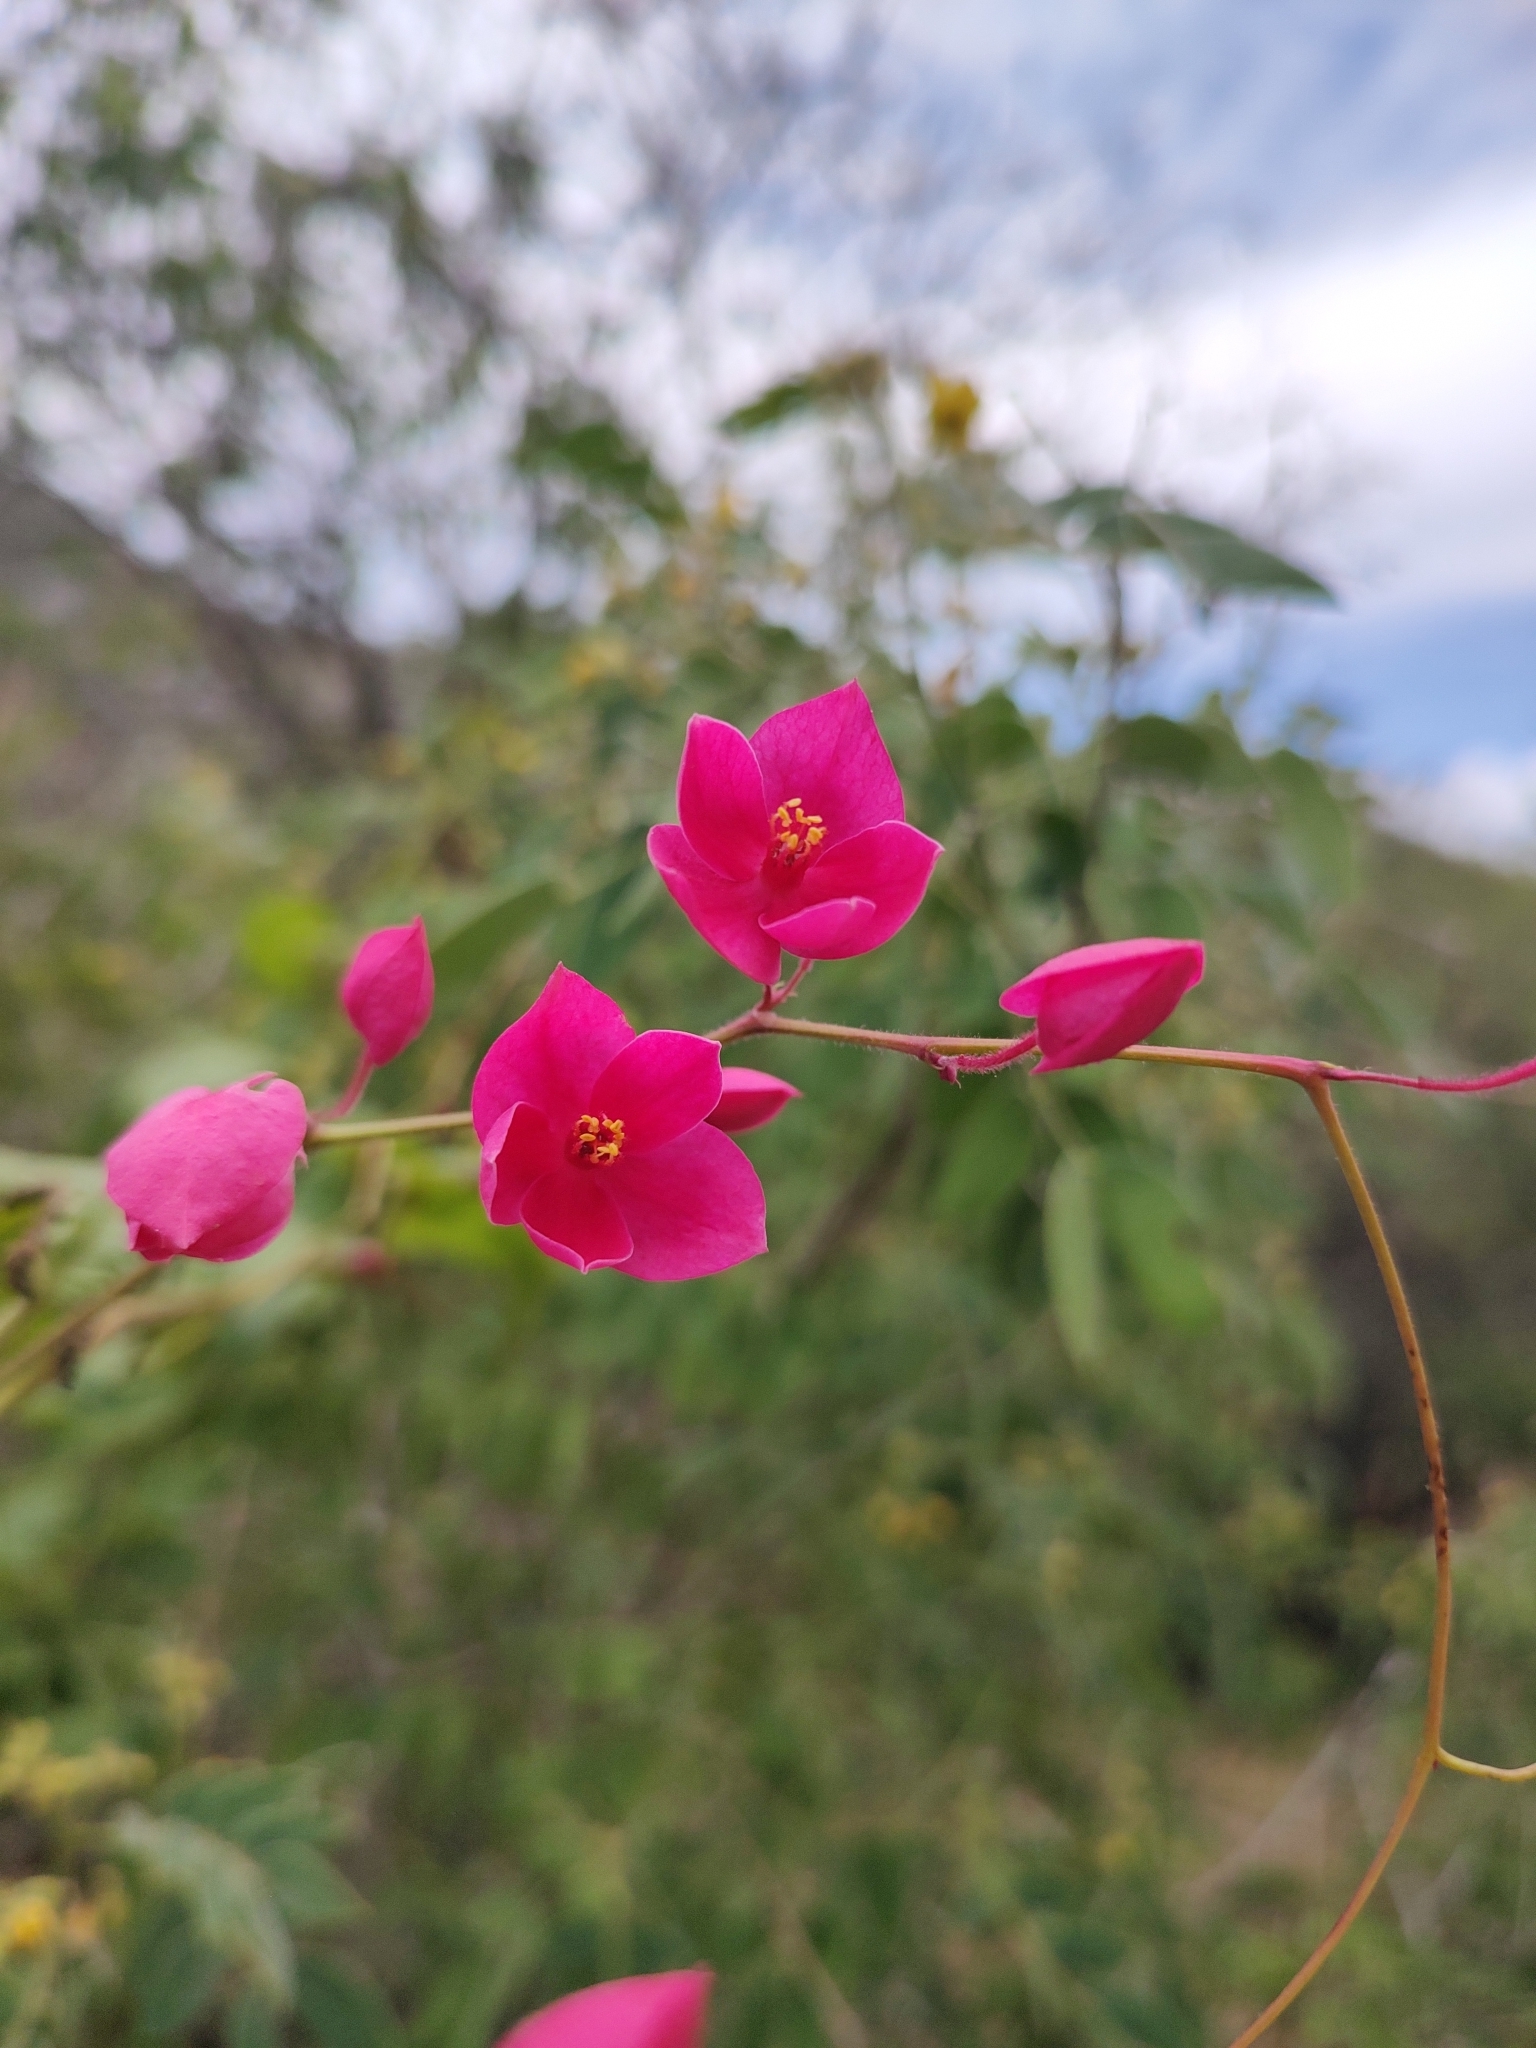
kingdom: Plantae
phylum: Tracheophyta
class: Magnoliopsida
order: Caryophyllales
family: Polygonaceae
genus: Antigonon
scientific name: Antigonon leptopus
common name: Coral vine
